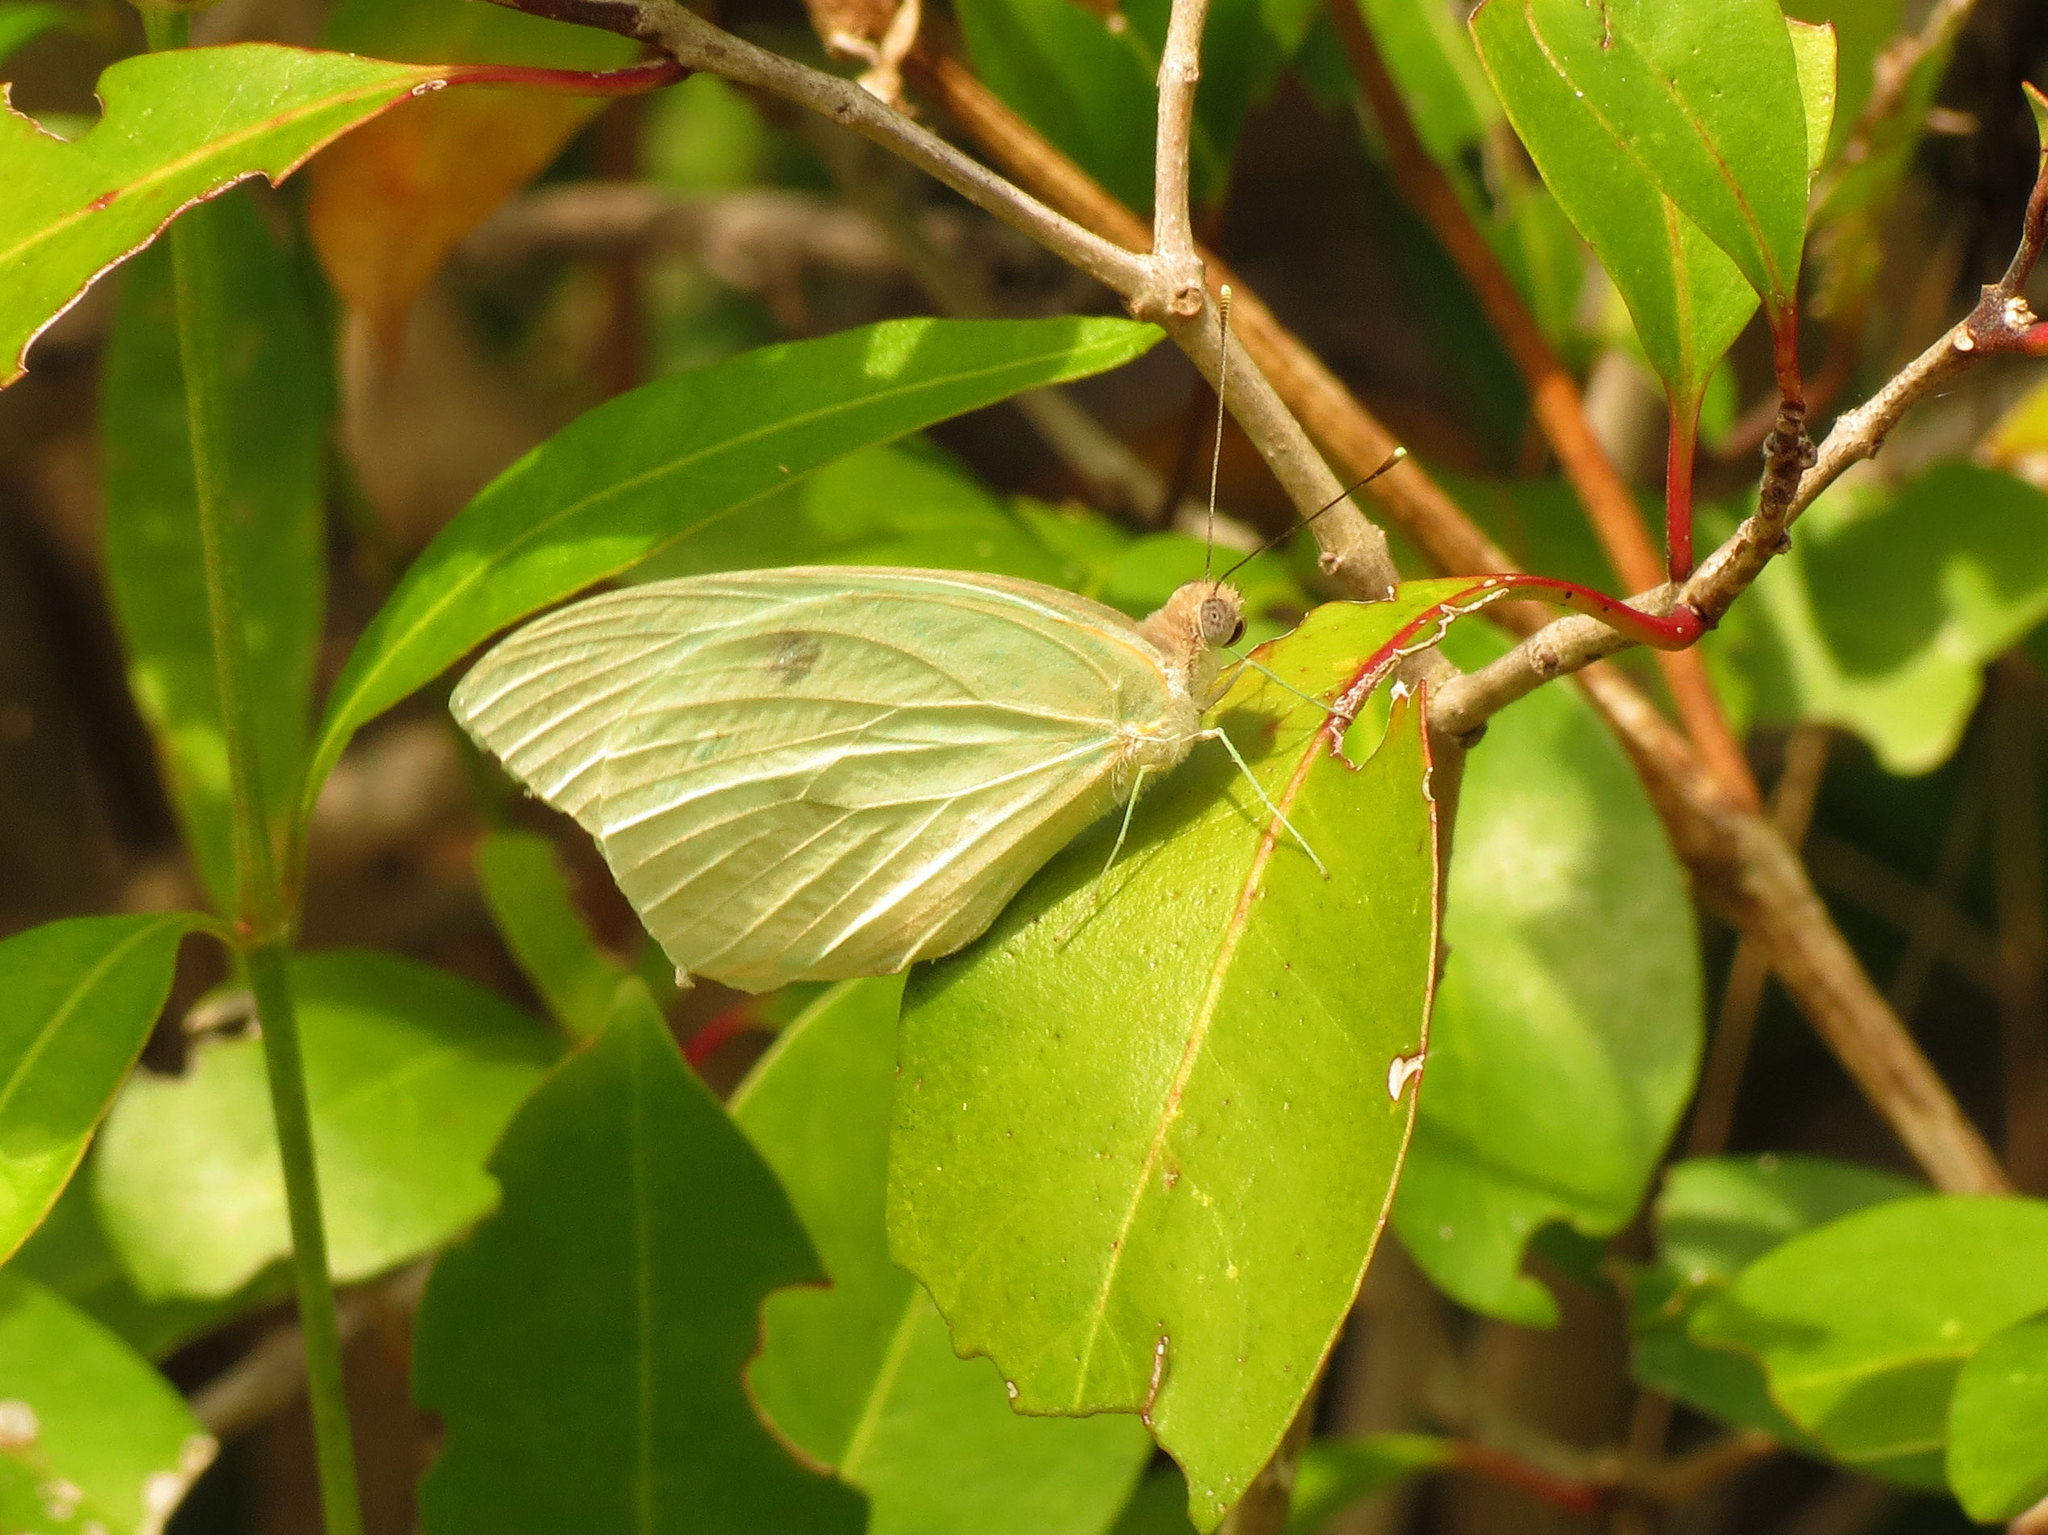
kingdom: Animalia
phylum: Arthropoda
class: Insecta
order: Lepidoptera
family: Pieridae
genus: Kricogonia
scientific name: Kricogonia lyside
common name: Guayacan sulphur,
